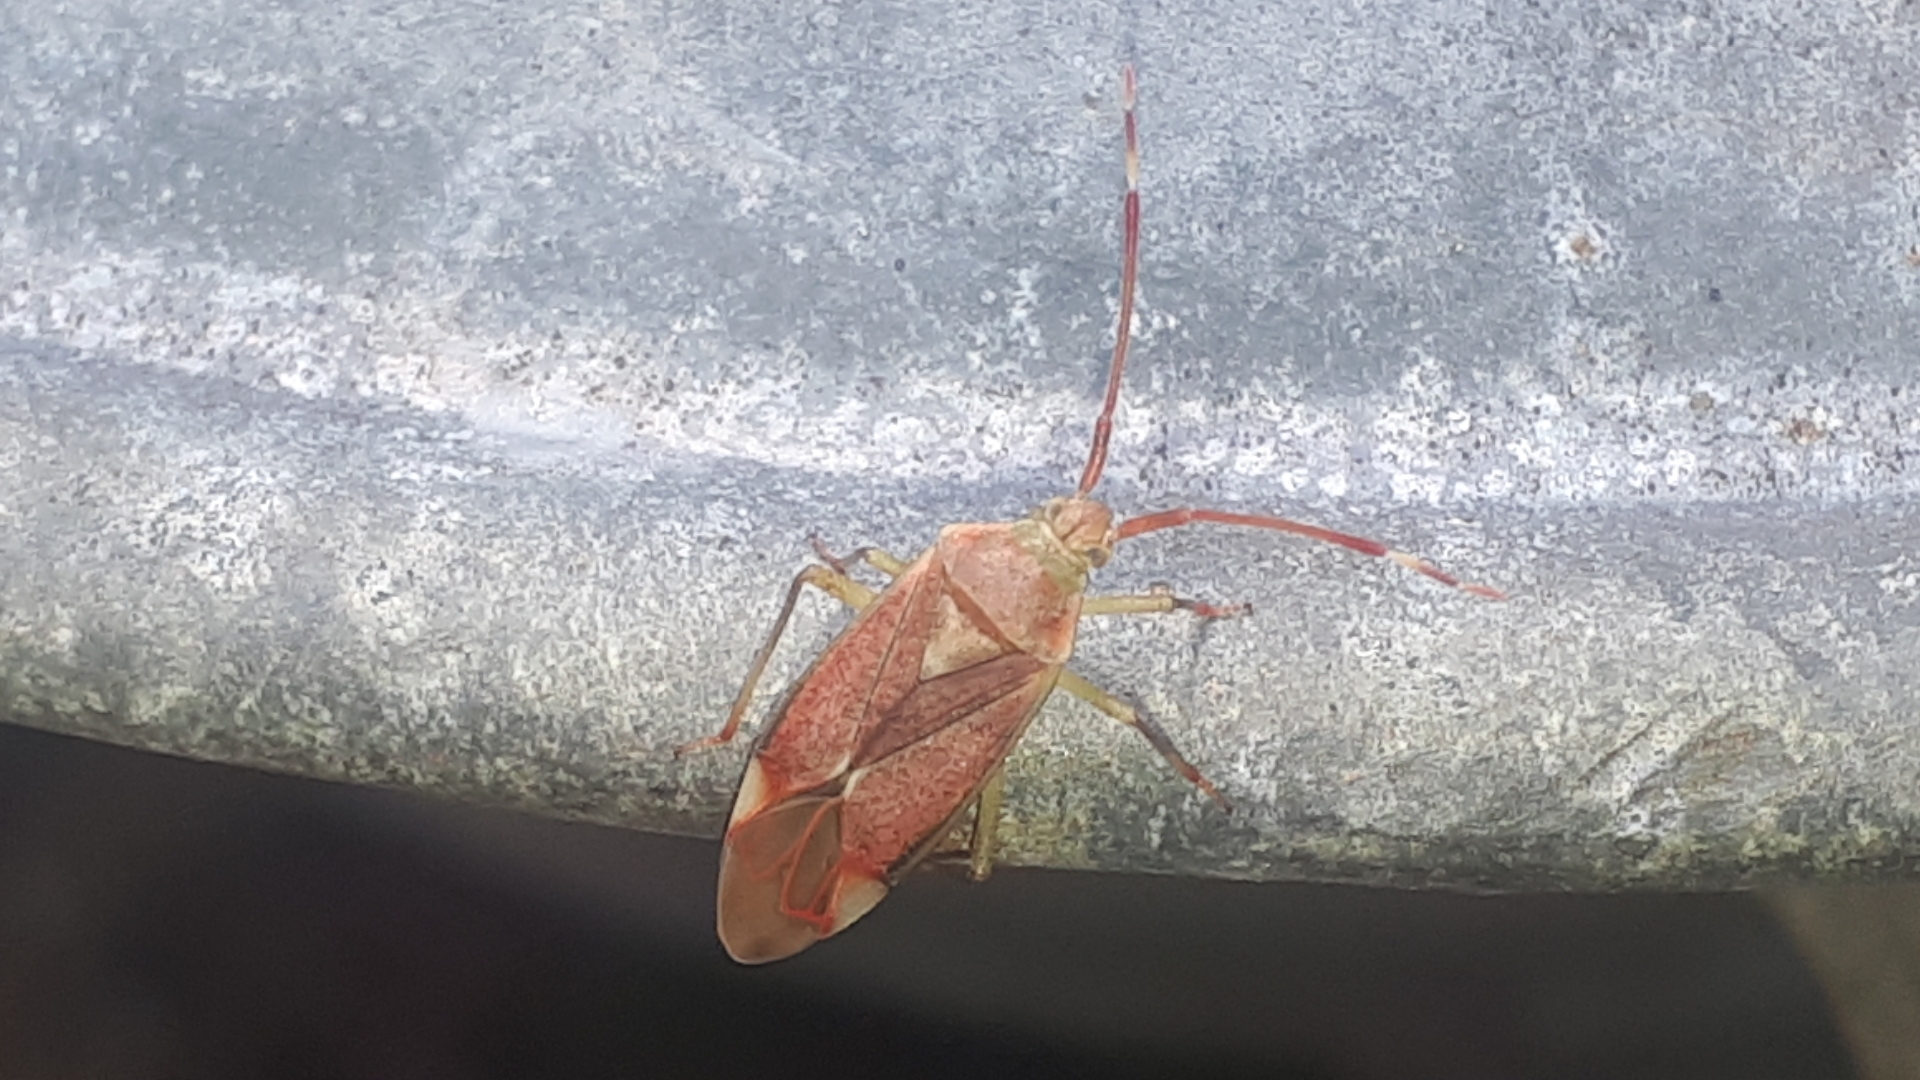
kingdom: Animalia
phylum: Arthropoda
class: Insecta
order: Hemiptera
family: Miridae
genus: Pantilius
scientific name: Pantilius tunicatus
